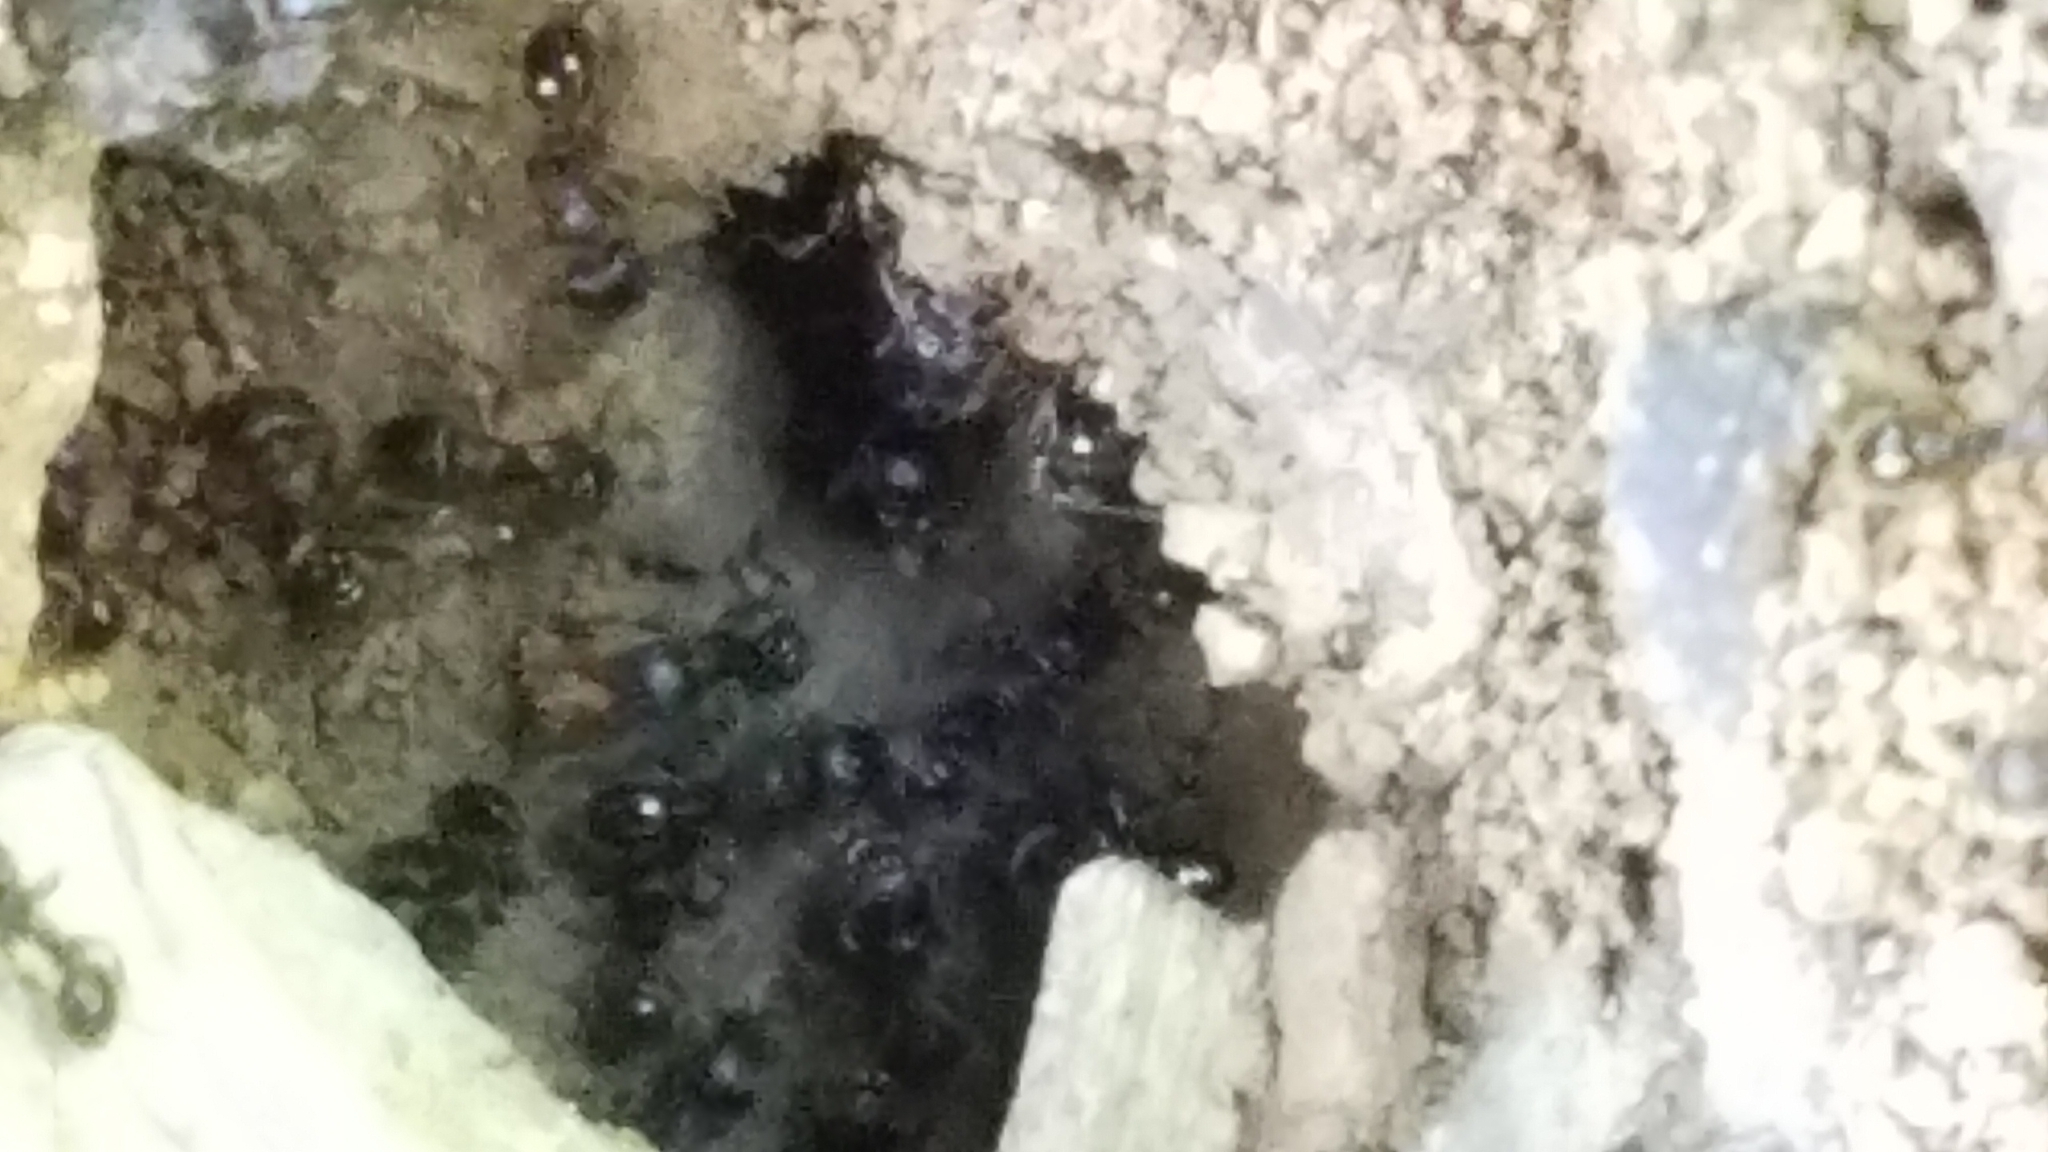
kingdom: Animalia
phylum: Arthropoda
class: Insecta
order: Hymenoptera
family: Formicidae
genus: Tetramorium
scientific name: Tetramorium immigrans
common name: Pavement ant
